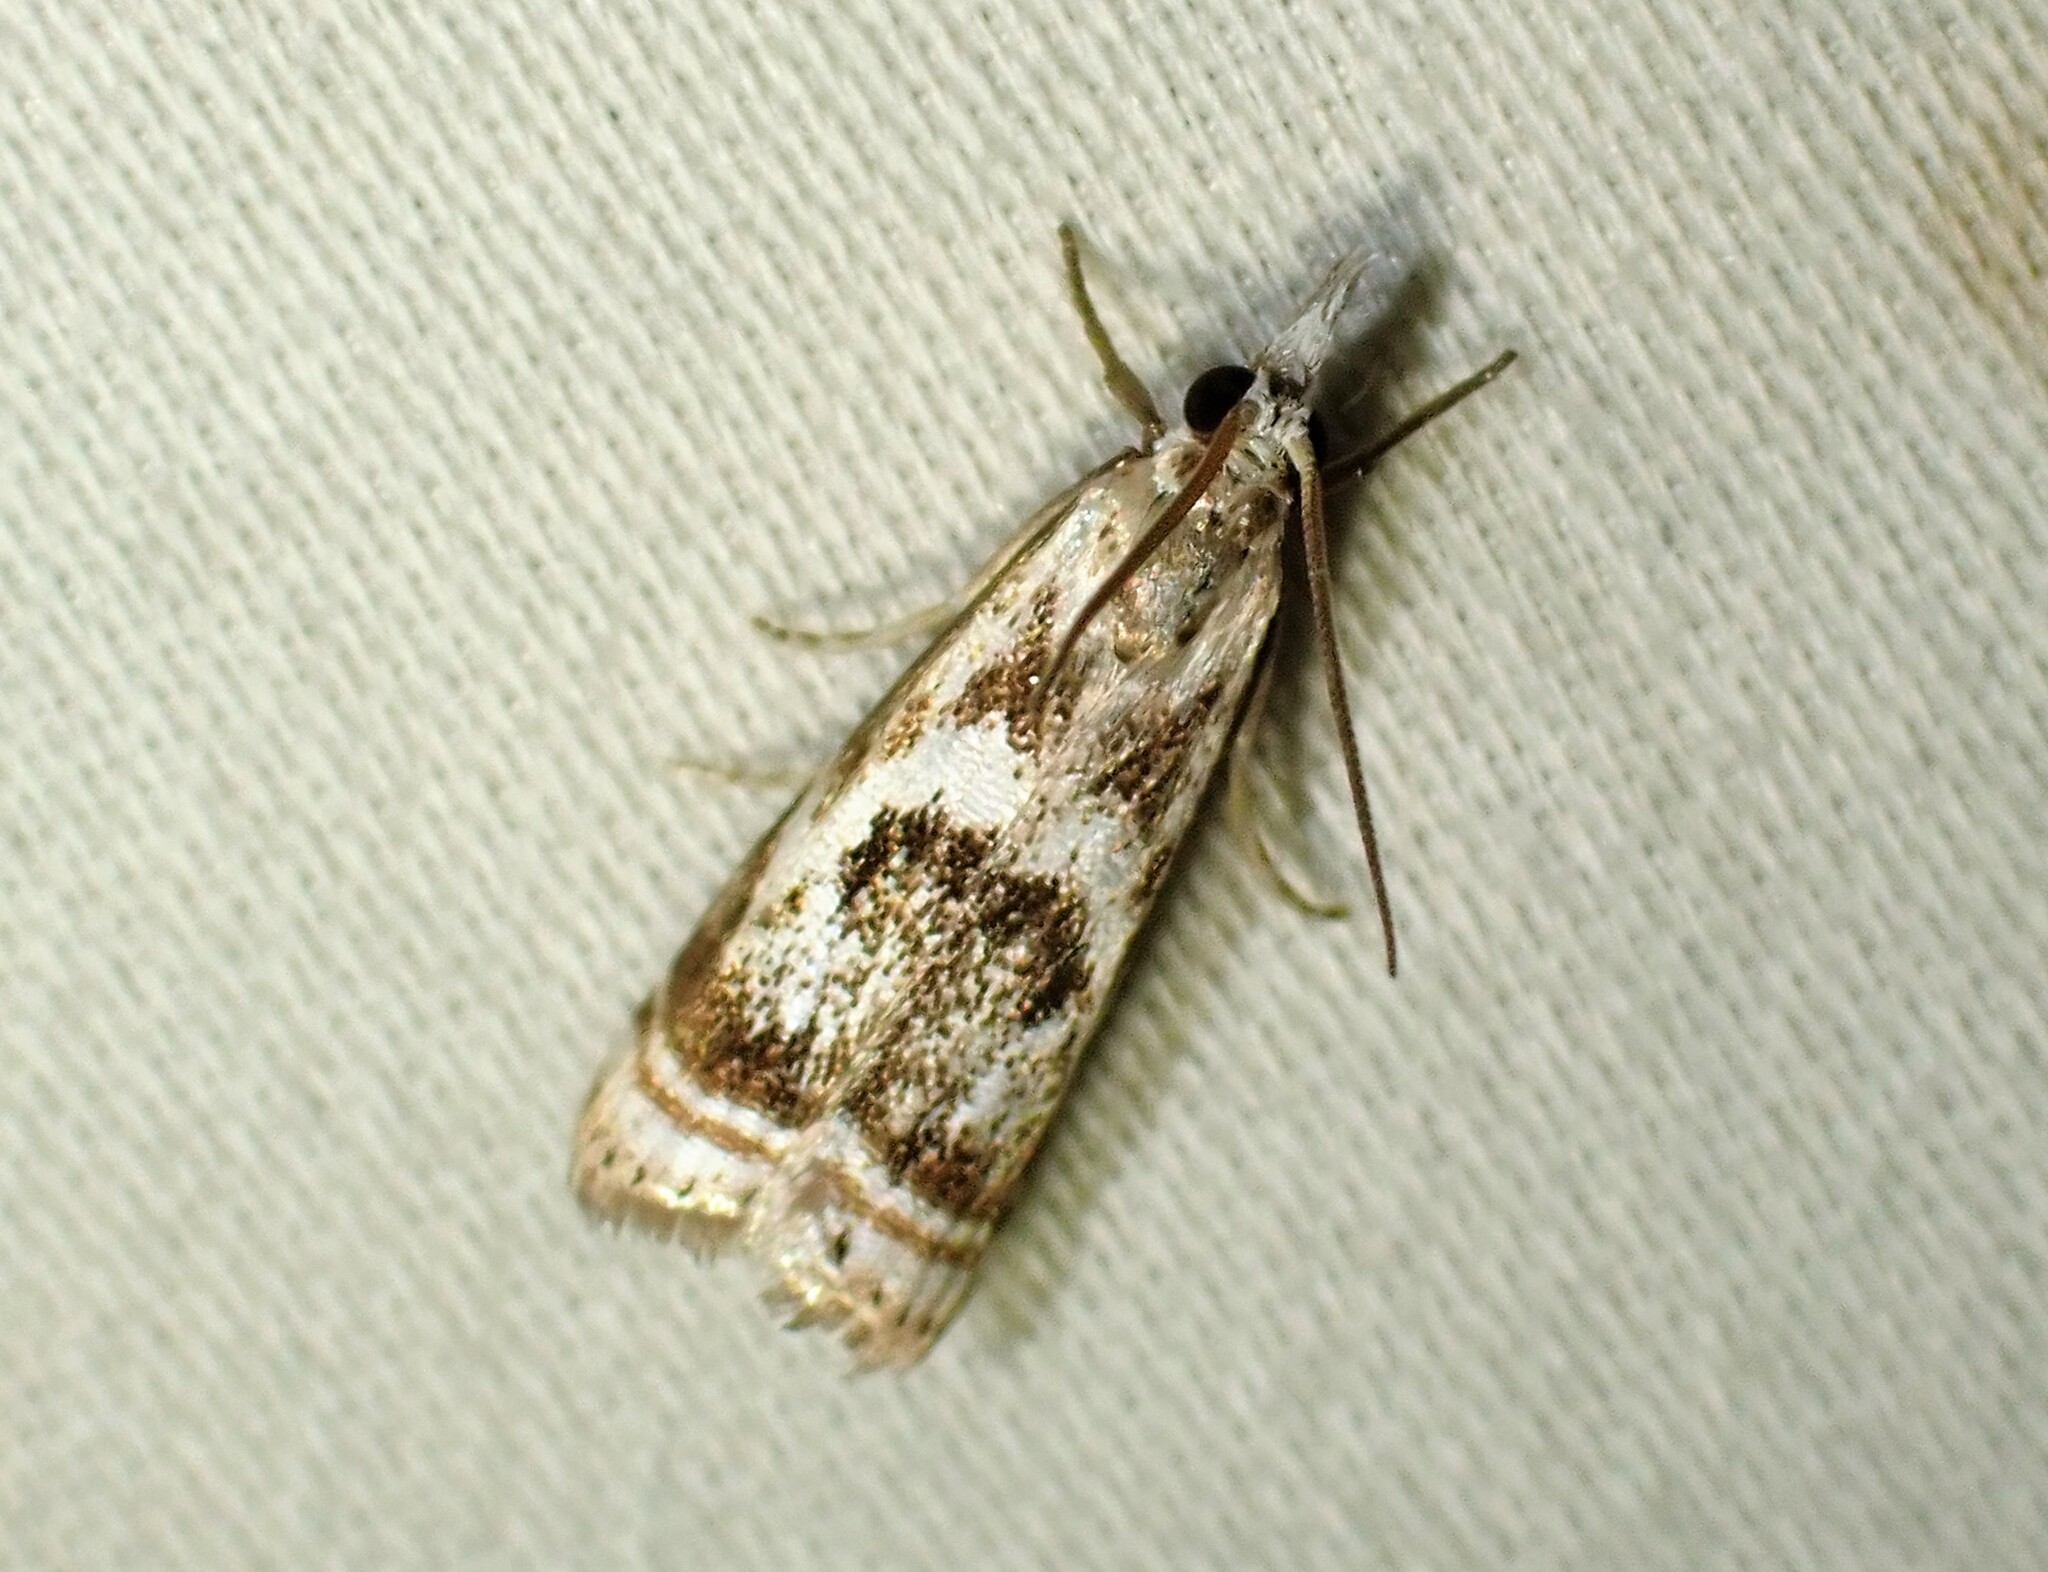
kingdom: Animalia
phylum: Arthropoda
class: Insecta
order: Lepidoptera
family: Crambidae
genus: Microcrambus
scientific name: Microcrambus elegans
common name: Elegant grass-veneer
